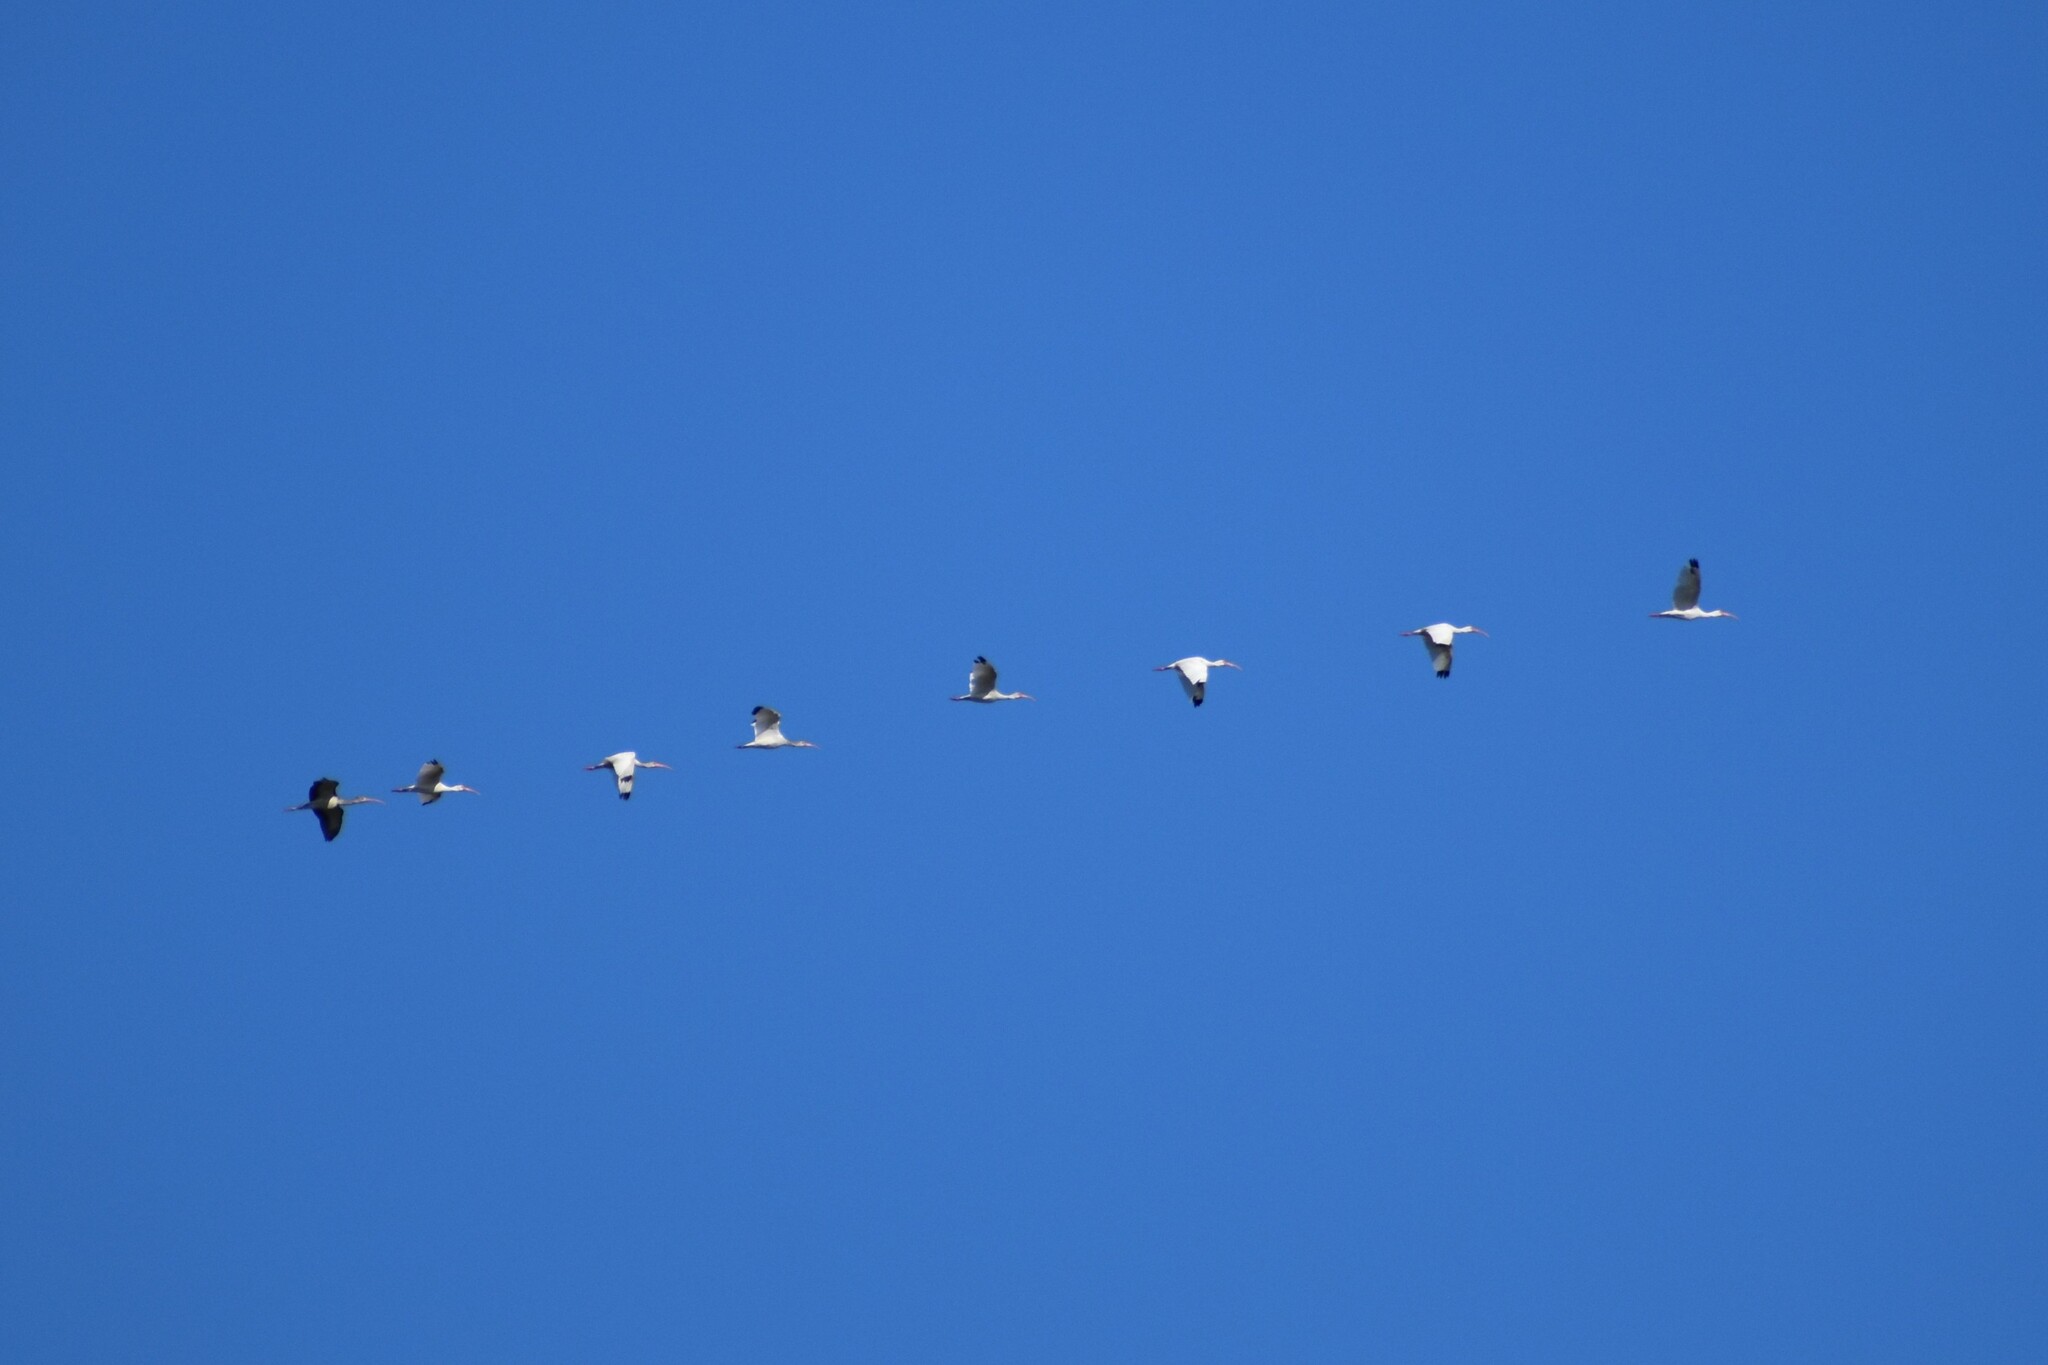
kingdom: Animalia
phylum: Chordata
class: Aves
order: Pelecaniformes
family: Threskiornithidae
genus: Eudocimus
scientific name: Eudocimus albus
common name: White ibis
